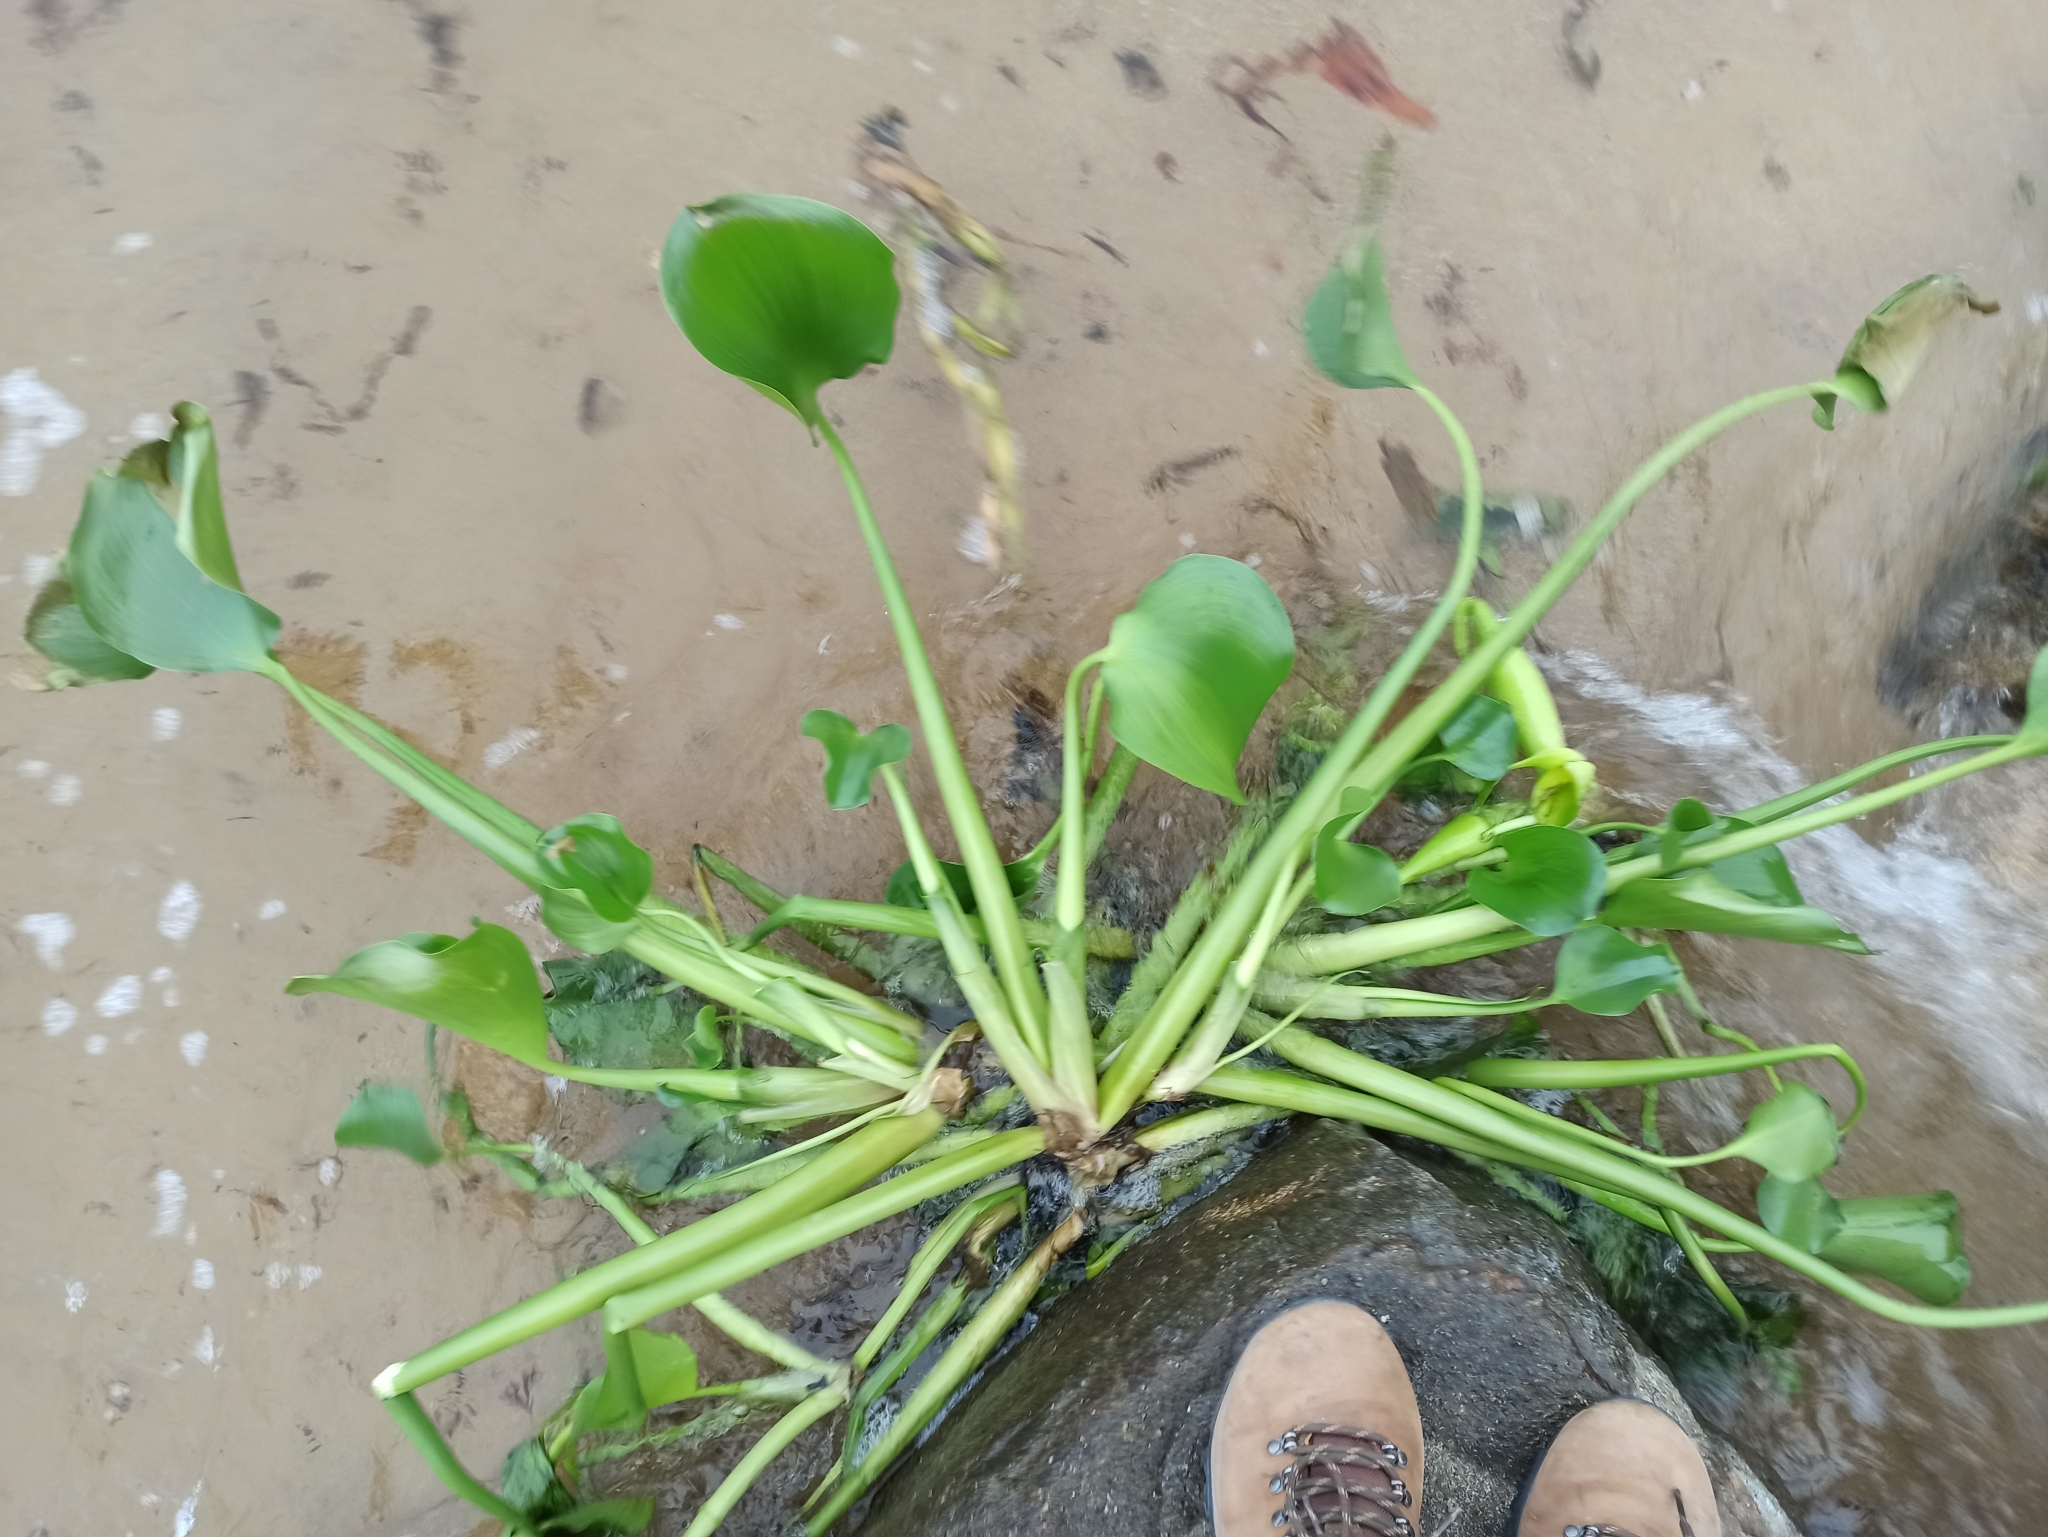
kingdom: Plantae
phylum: Tracheophyta
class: Liliopsida
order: Commelinales
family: Pontederiaceae
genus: Pontederia
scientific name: Pontederia crassipes
